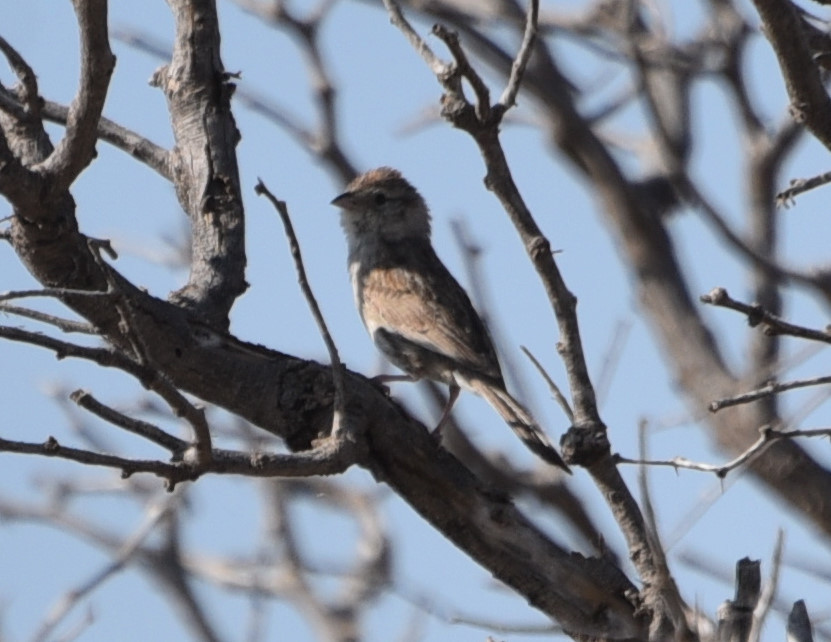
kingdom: Animalia
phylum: Chordata
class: Aves
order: Passeriformes
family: Passerellidae
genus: Peucaea
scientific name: Peucaea cassinii
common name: Cassin's sparrow
